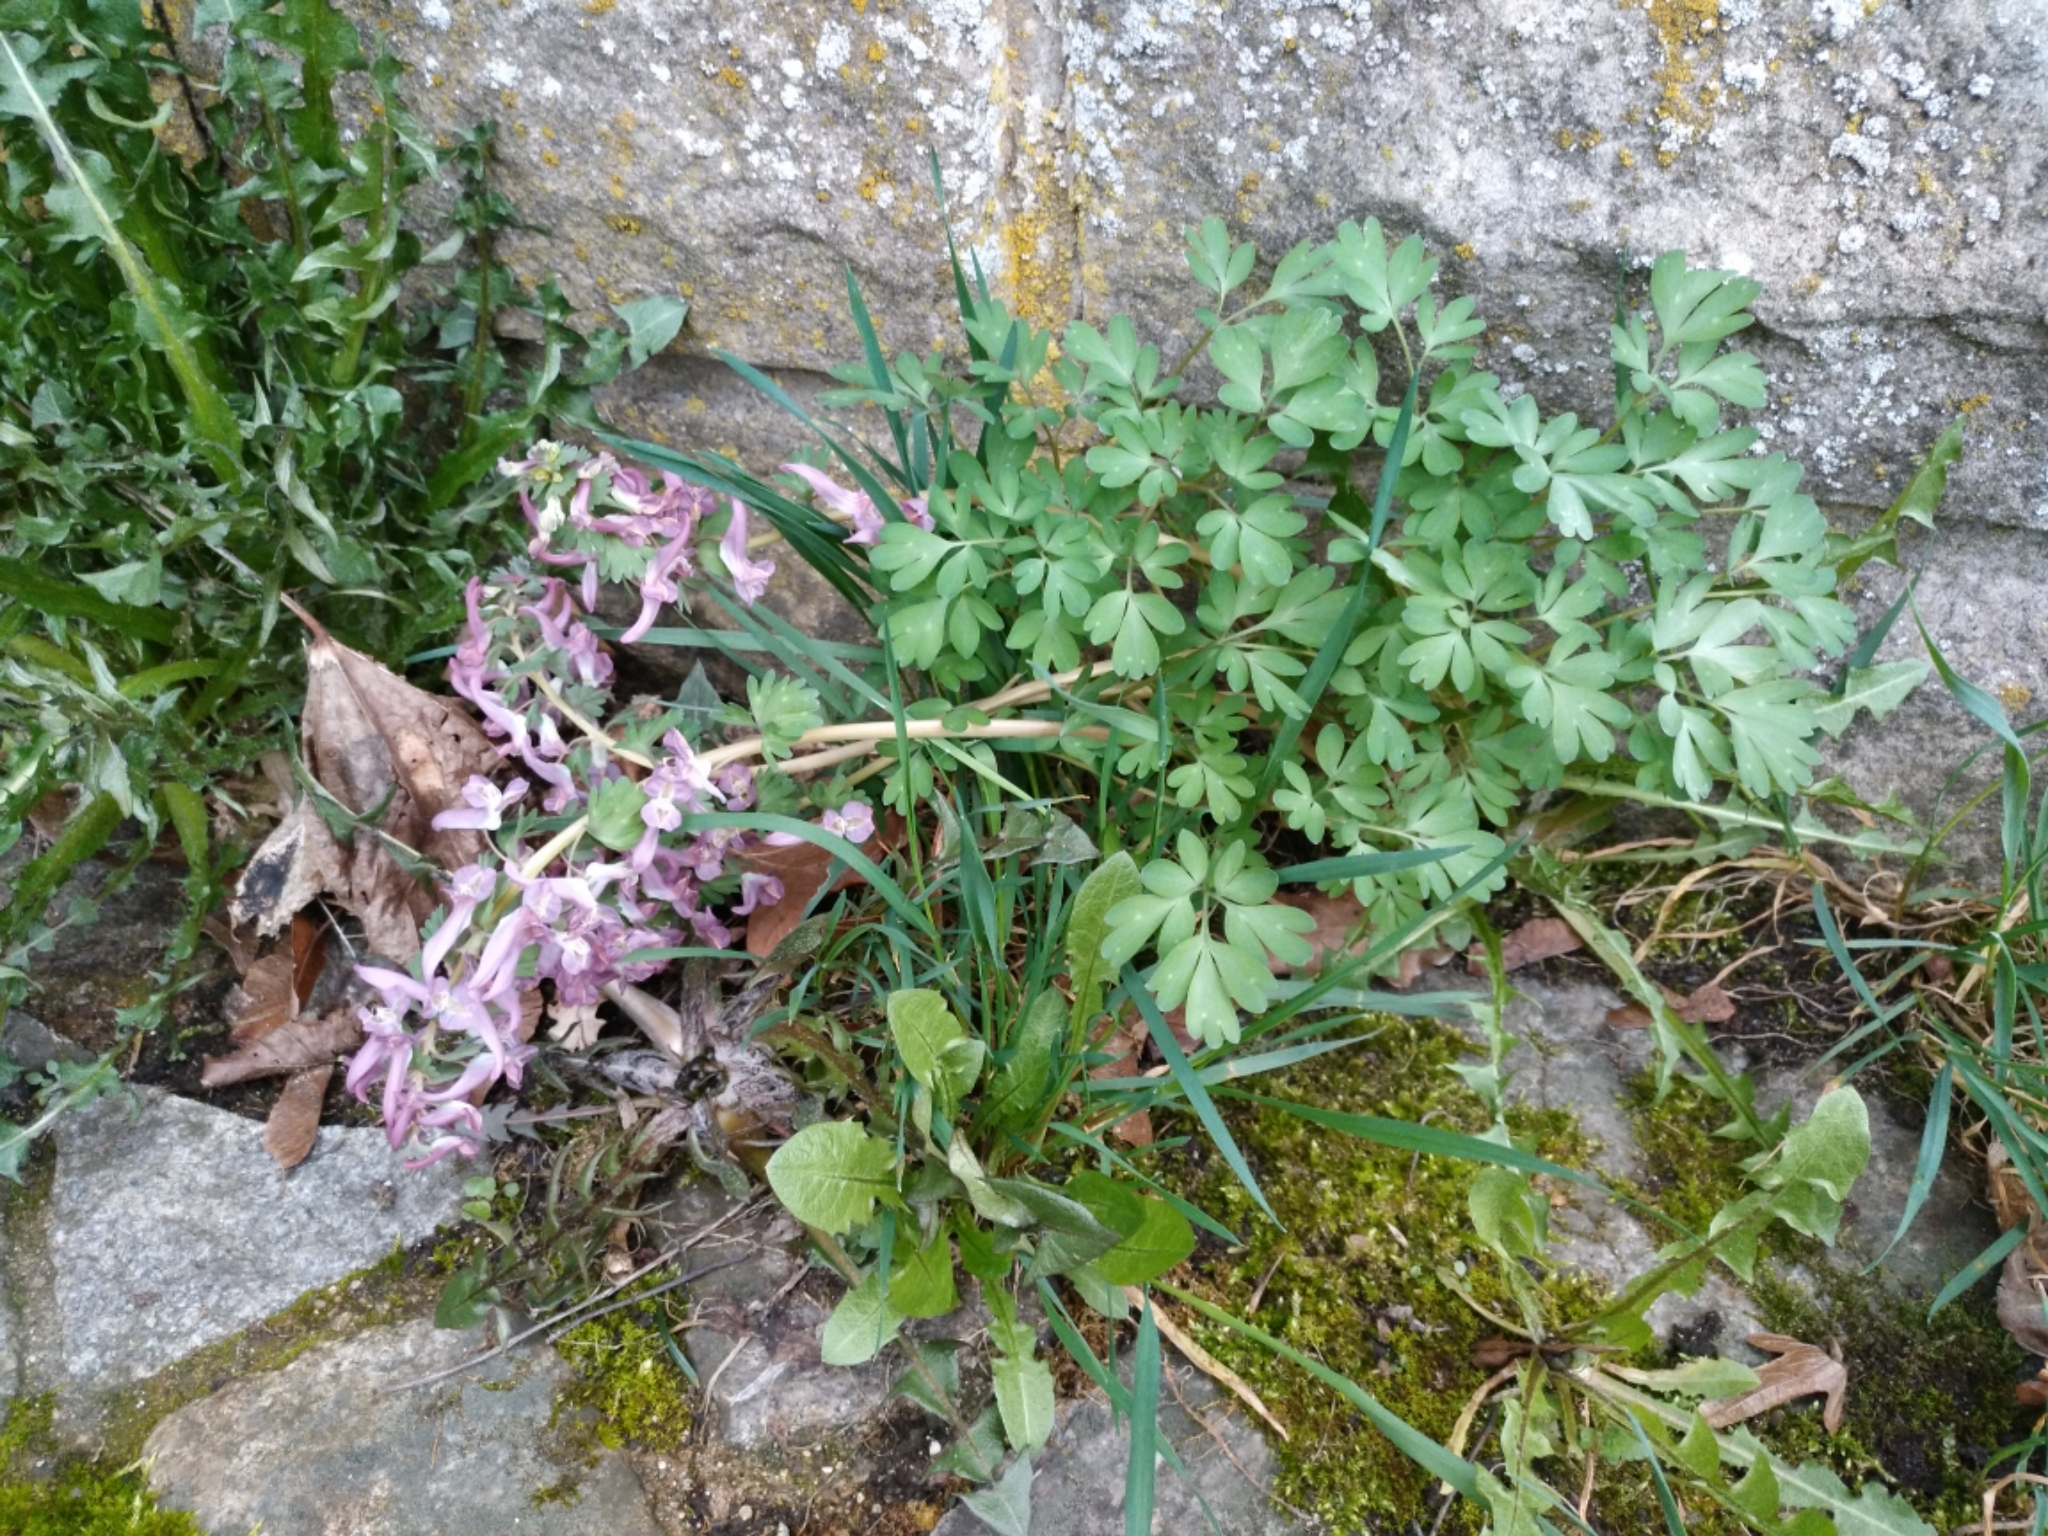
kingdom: Plantae
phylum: Tracheophyta
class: Magnoliopsida
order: Ranunculales
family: Papaveraceae
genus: Corydalis
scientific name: Corydalis solida
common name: Bird-in-a-bush
